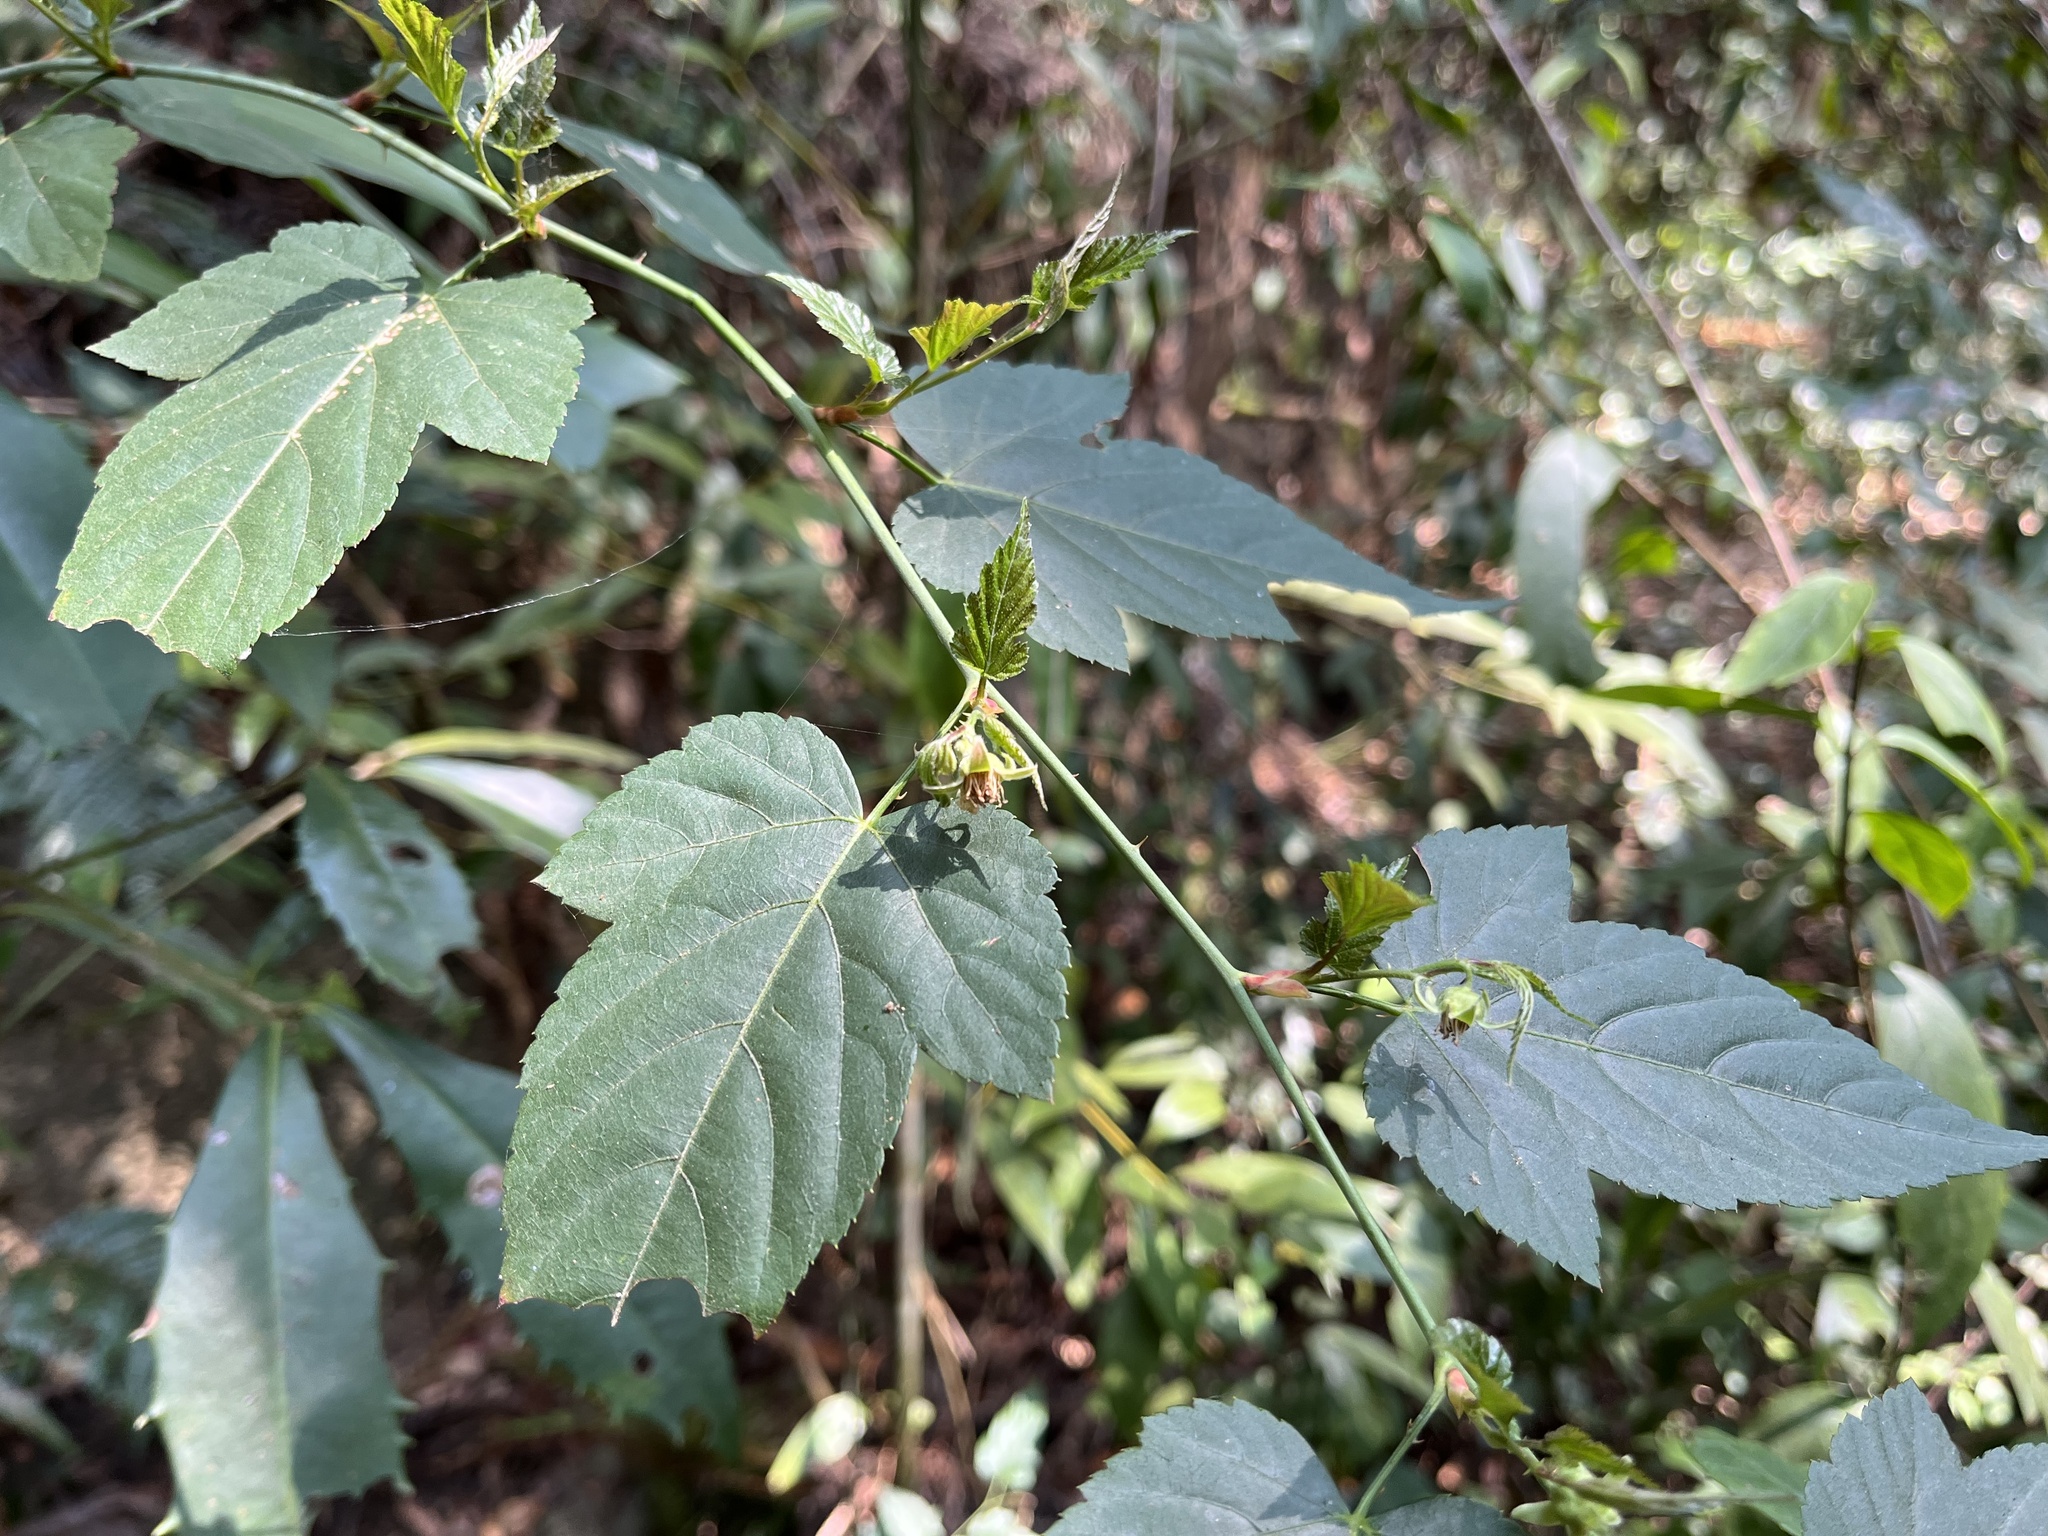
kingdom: Plantae
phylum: Tracheophyta
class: Magnoliopsida
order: Rosales
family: Rosaceae
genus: Rubus
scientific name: Rubus corchorifolius
